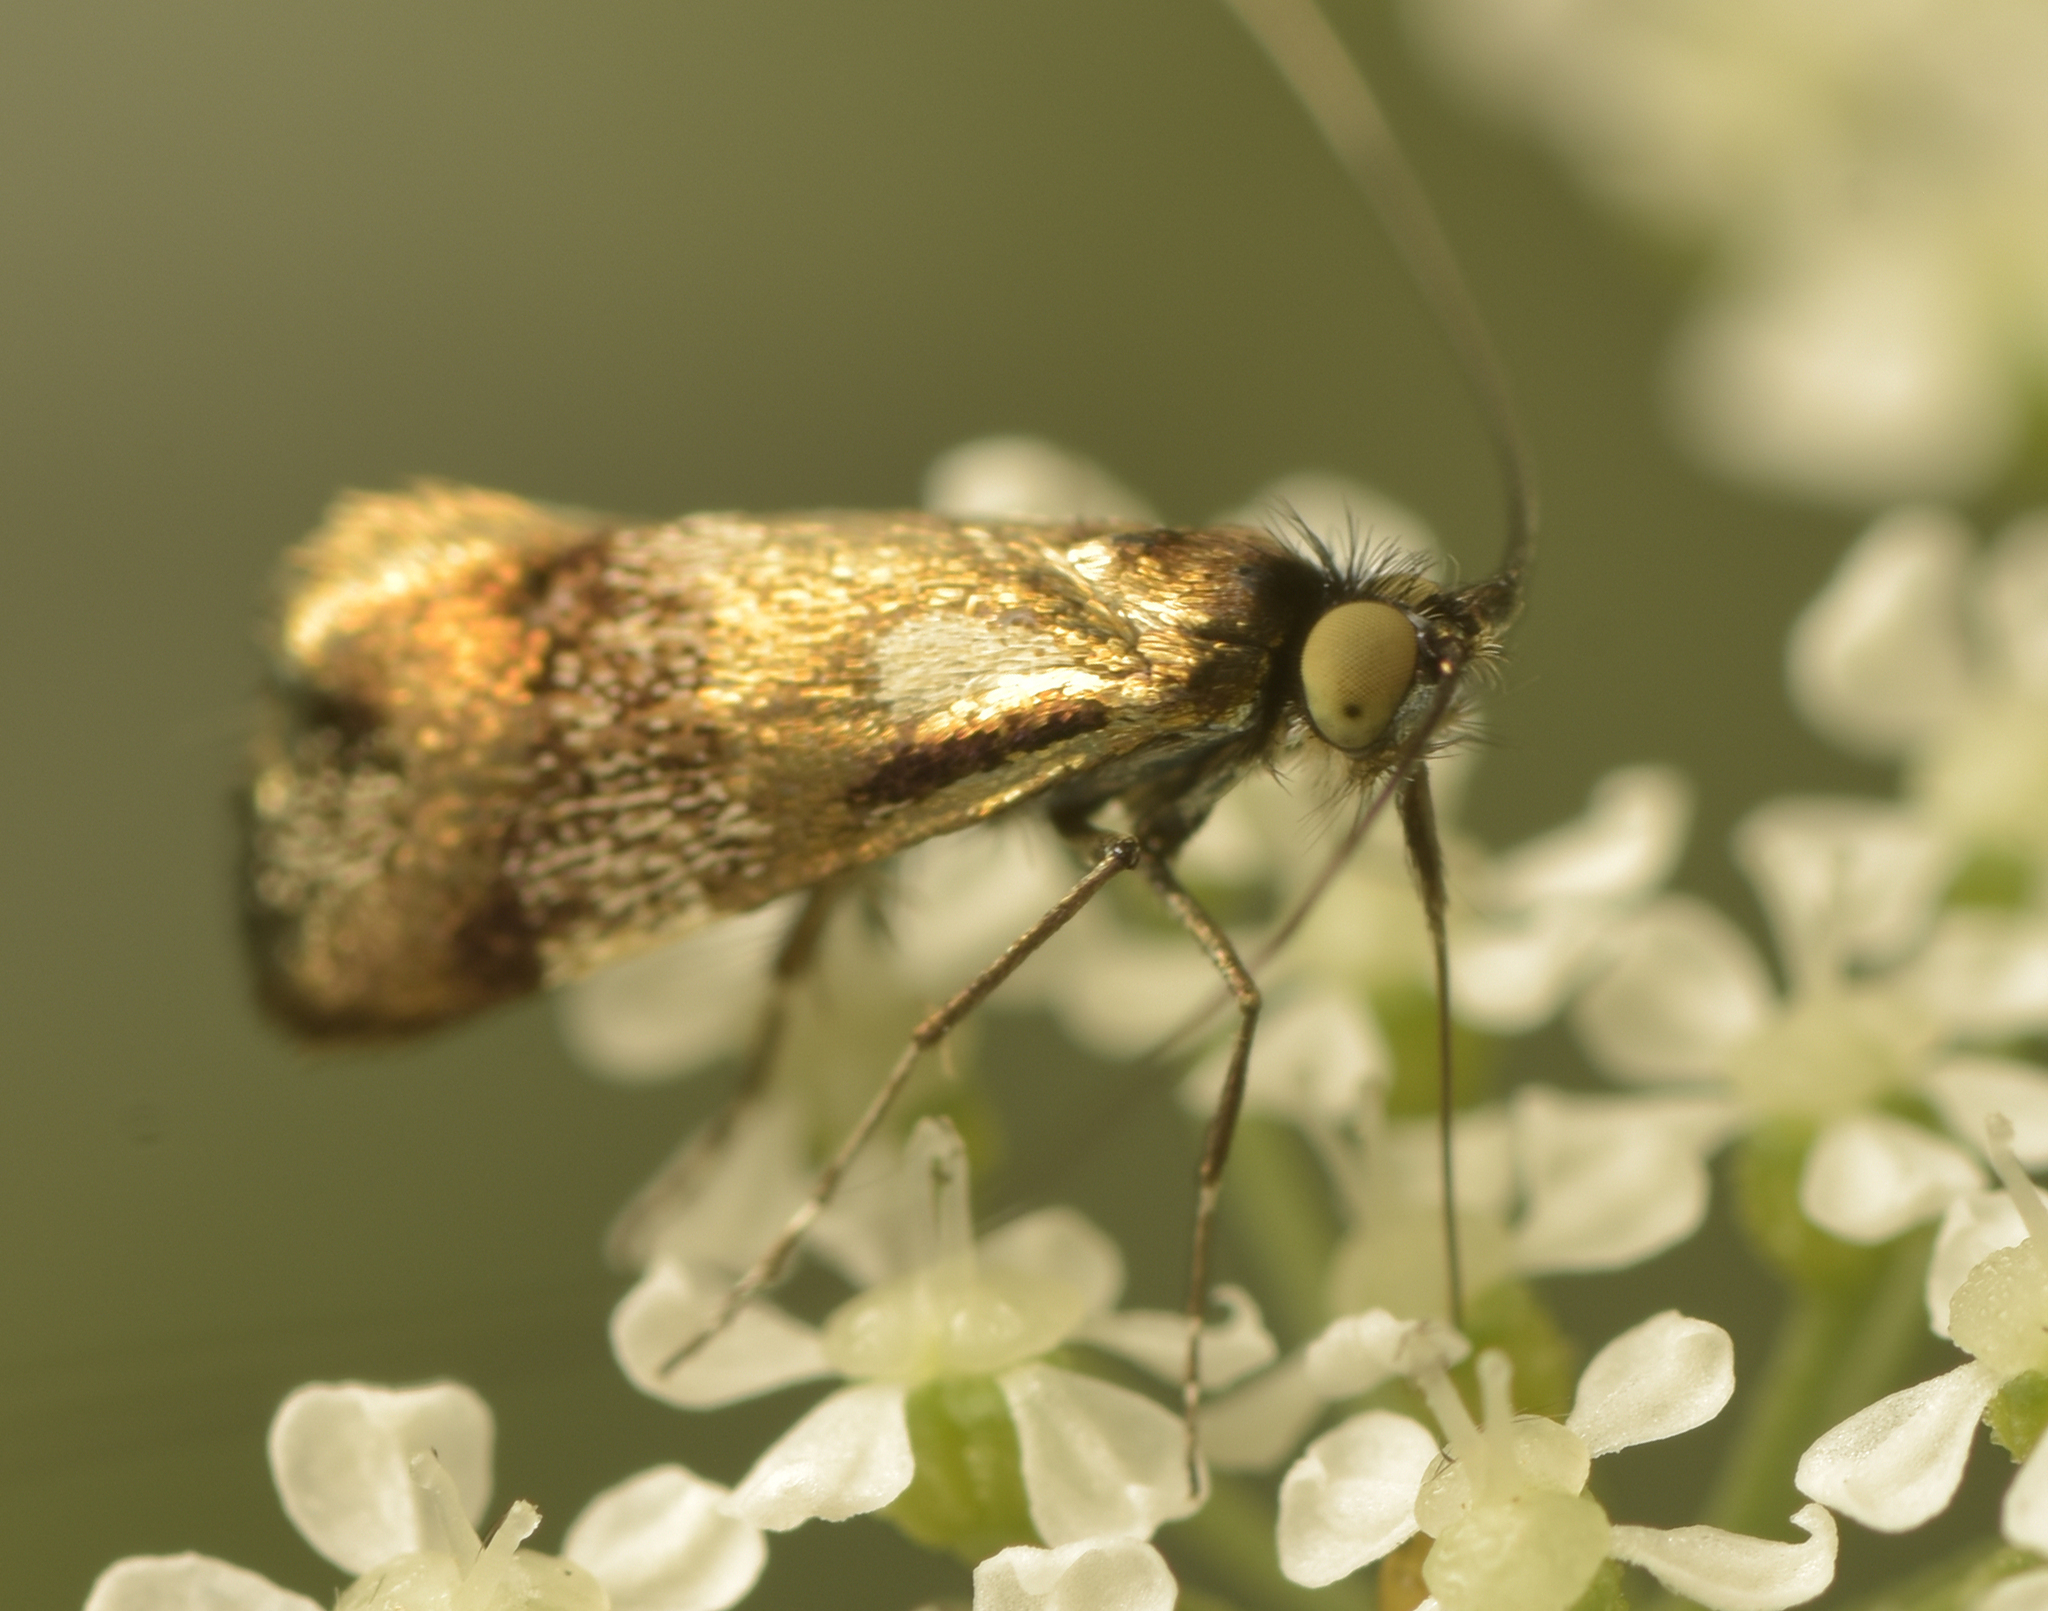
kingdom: Animalia
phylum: Arthropoda
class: Insecta
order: Lepidoptera
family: Adelidae
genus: Nemophora
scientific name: Nemophora topazias
